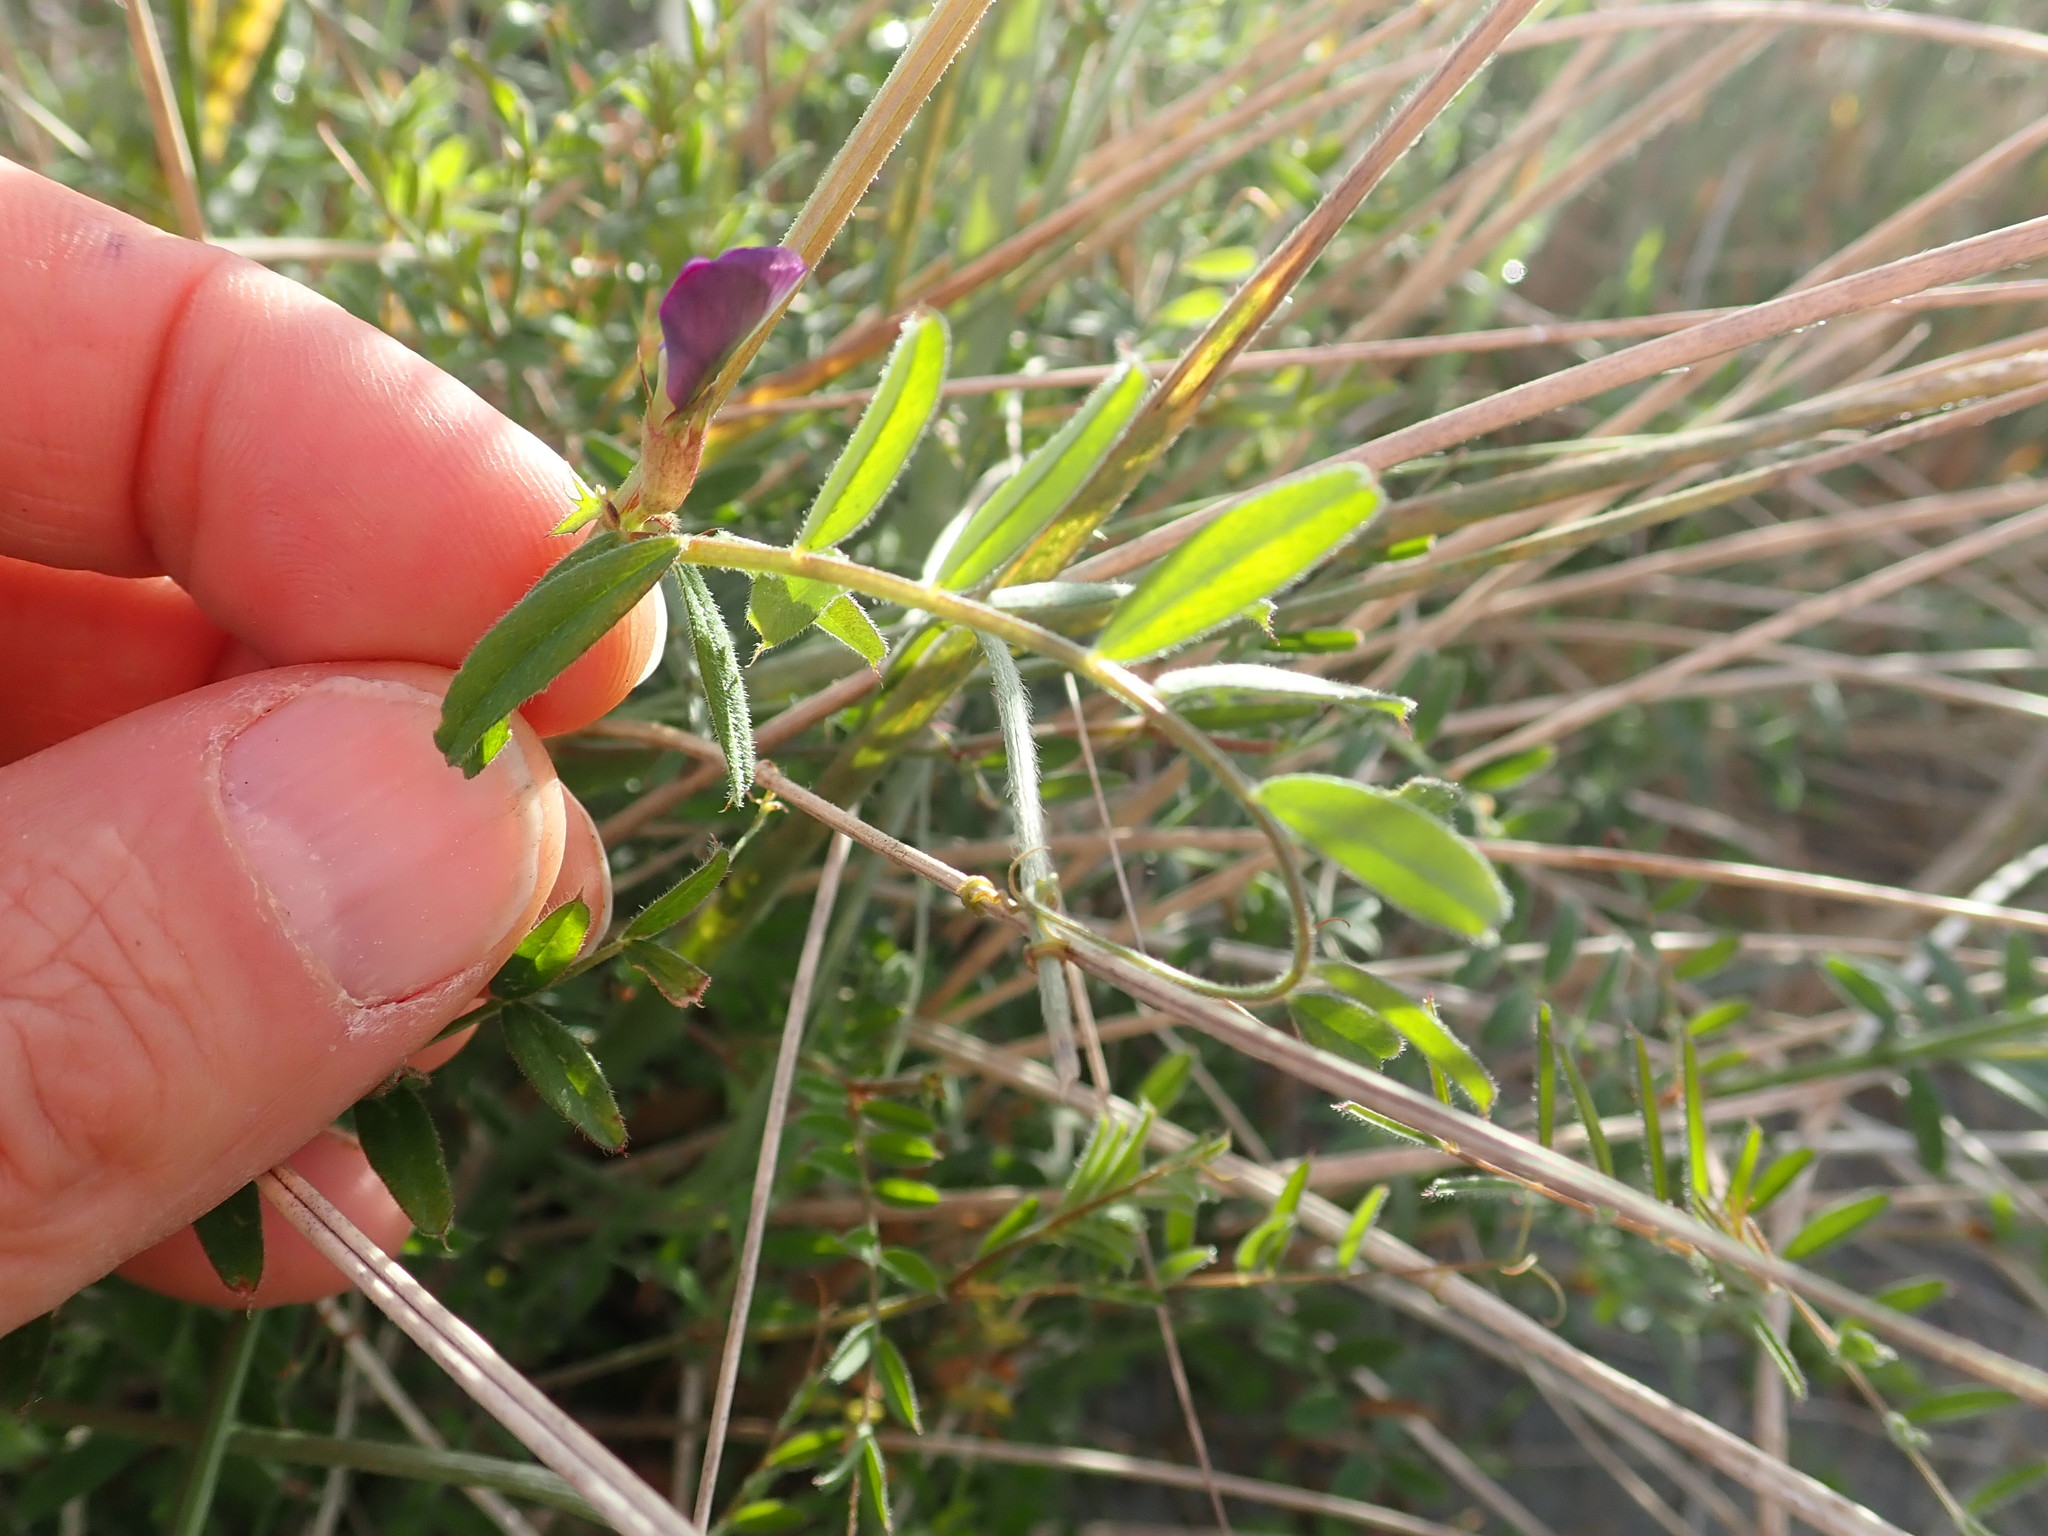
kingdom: Plantae
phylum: Tracheophyta
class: Magnoliopsida
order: Fabales
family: Fabaceae
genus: Vicia
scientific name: Vicia sativa
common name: Garden vetch
